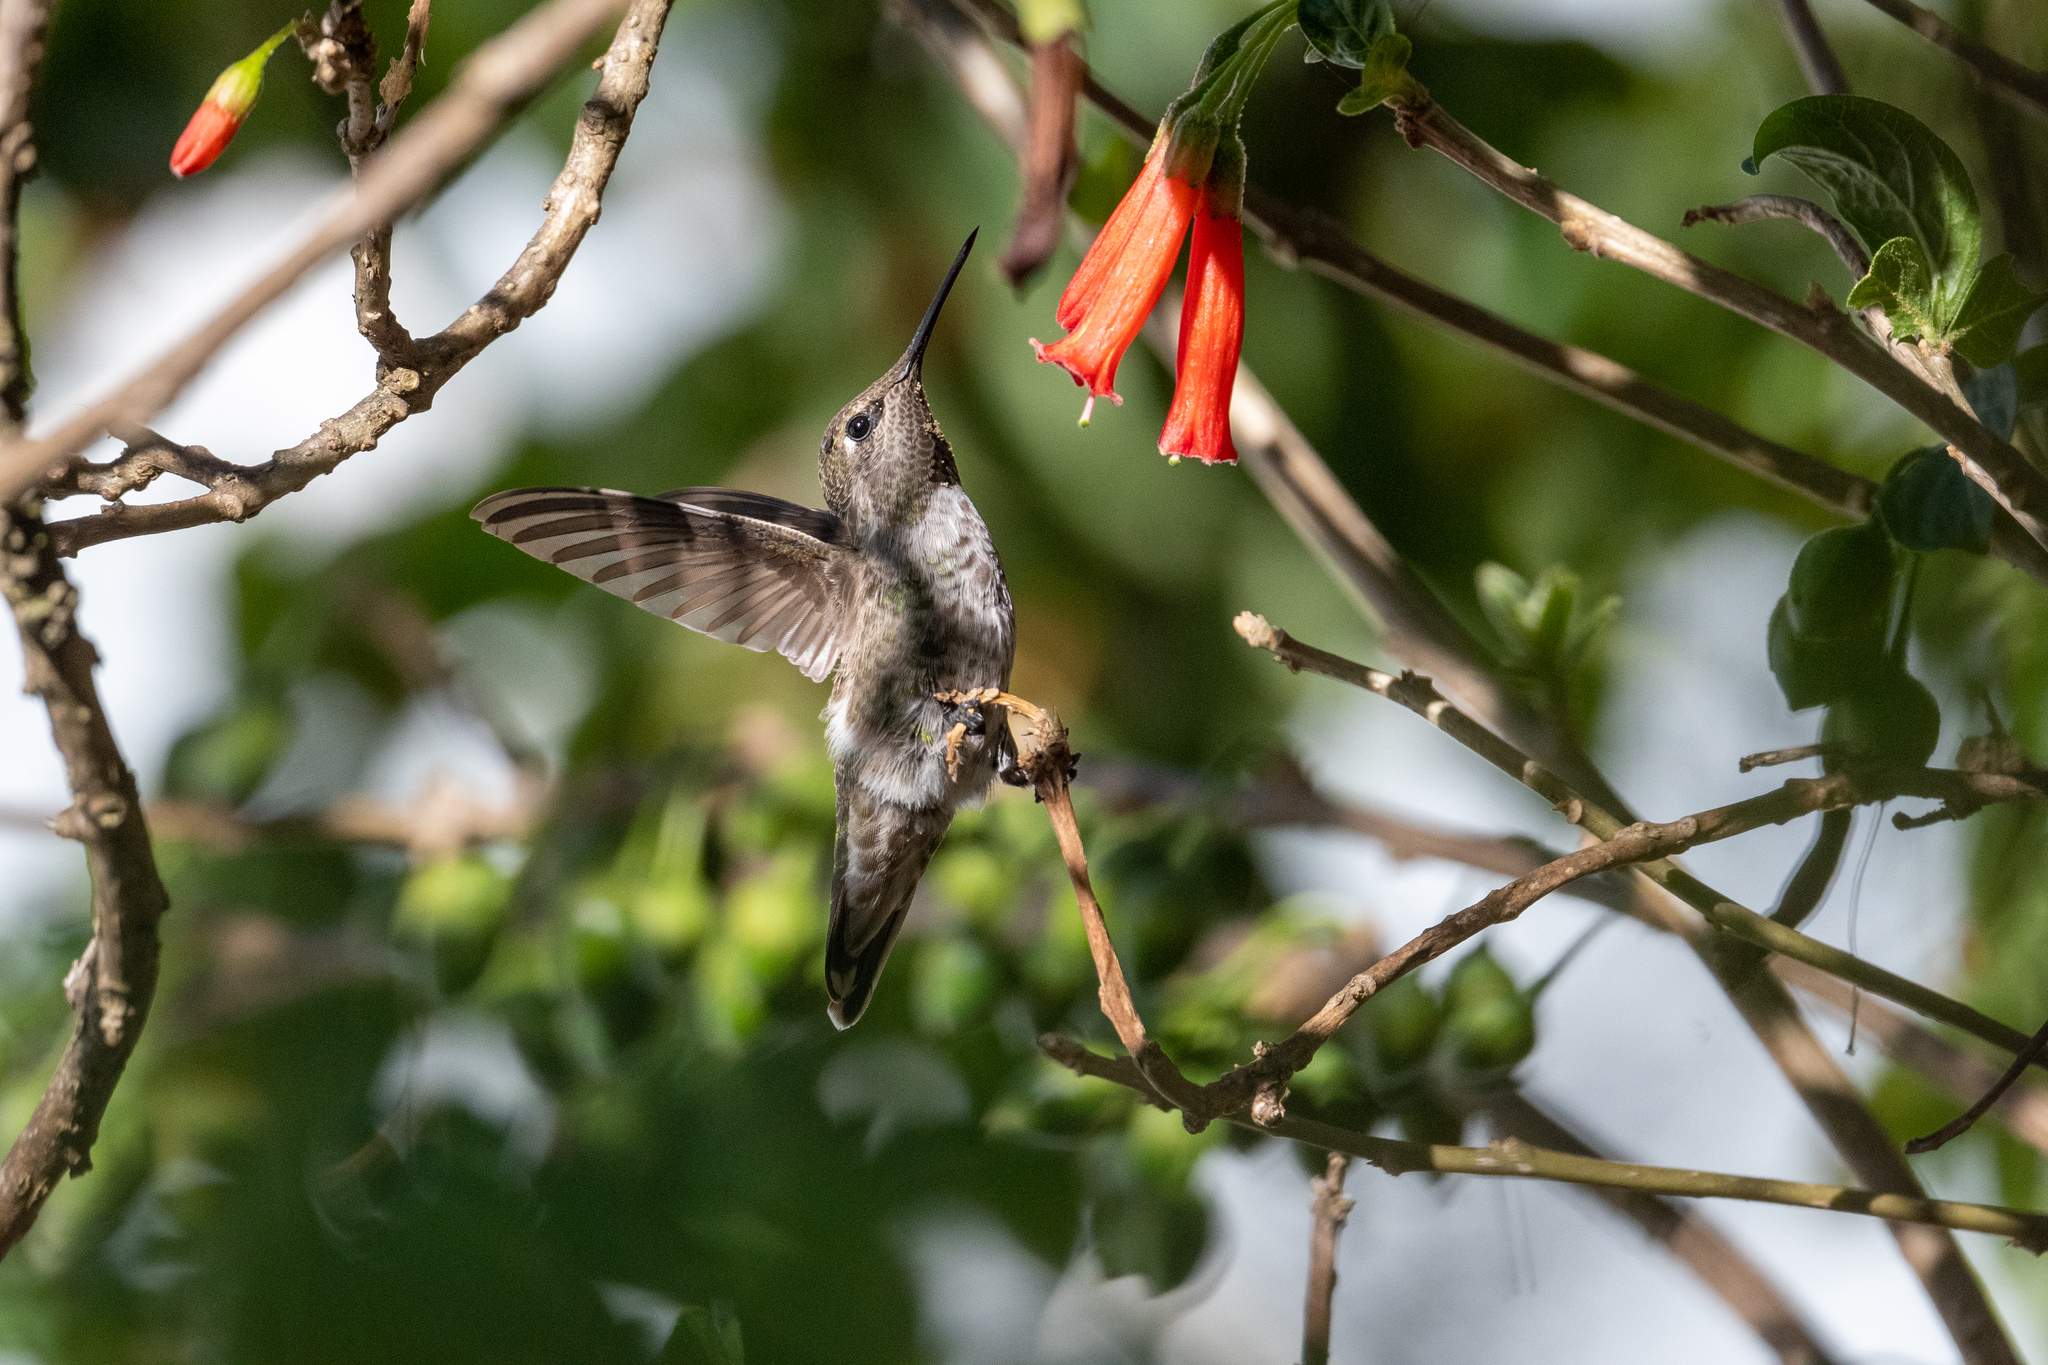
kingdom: Animalia
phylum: Chordata
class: Aves
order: Apodiformes
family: Trochilidae
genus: Calypte
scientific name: Calypte anna
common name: Anna's hummingbird
